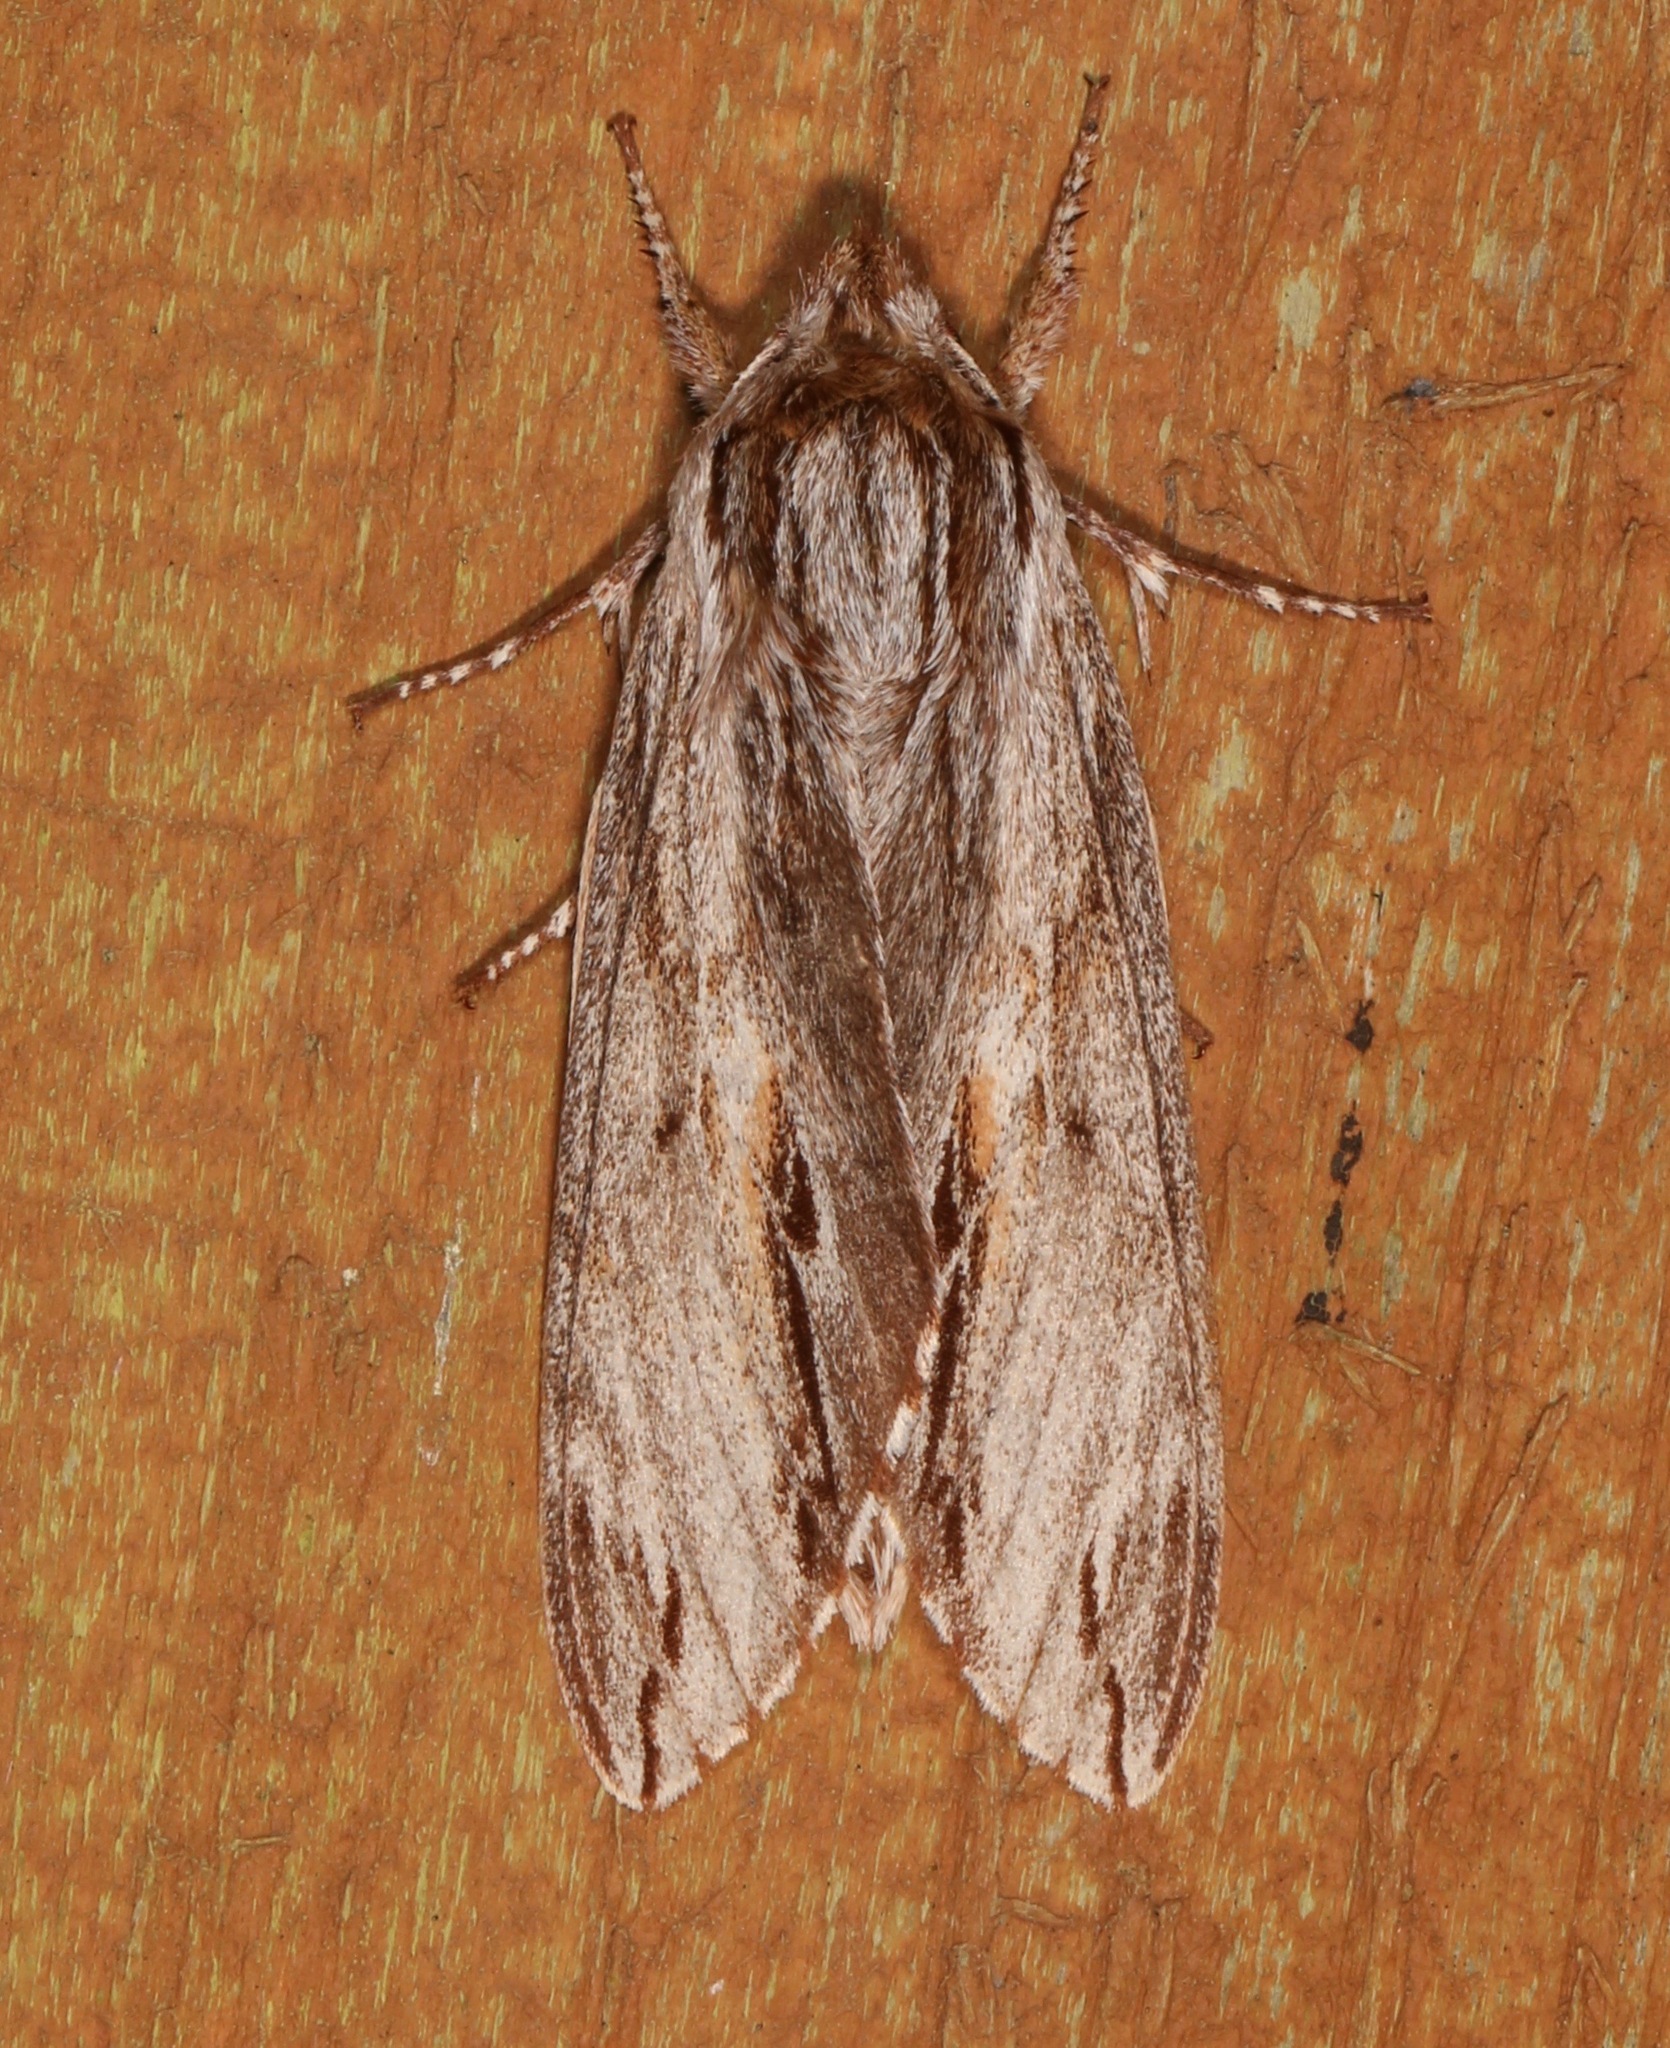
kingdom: Animalia
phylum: Arthropoda
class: Insecta
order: Lepidoptera
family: Sphingidae
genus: Isoparce
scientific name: Isoparce cupressi
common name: Cypress sphinx
